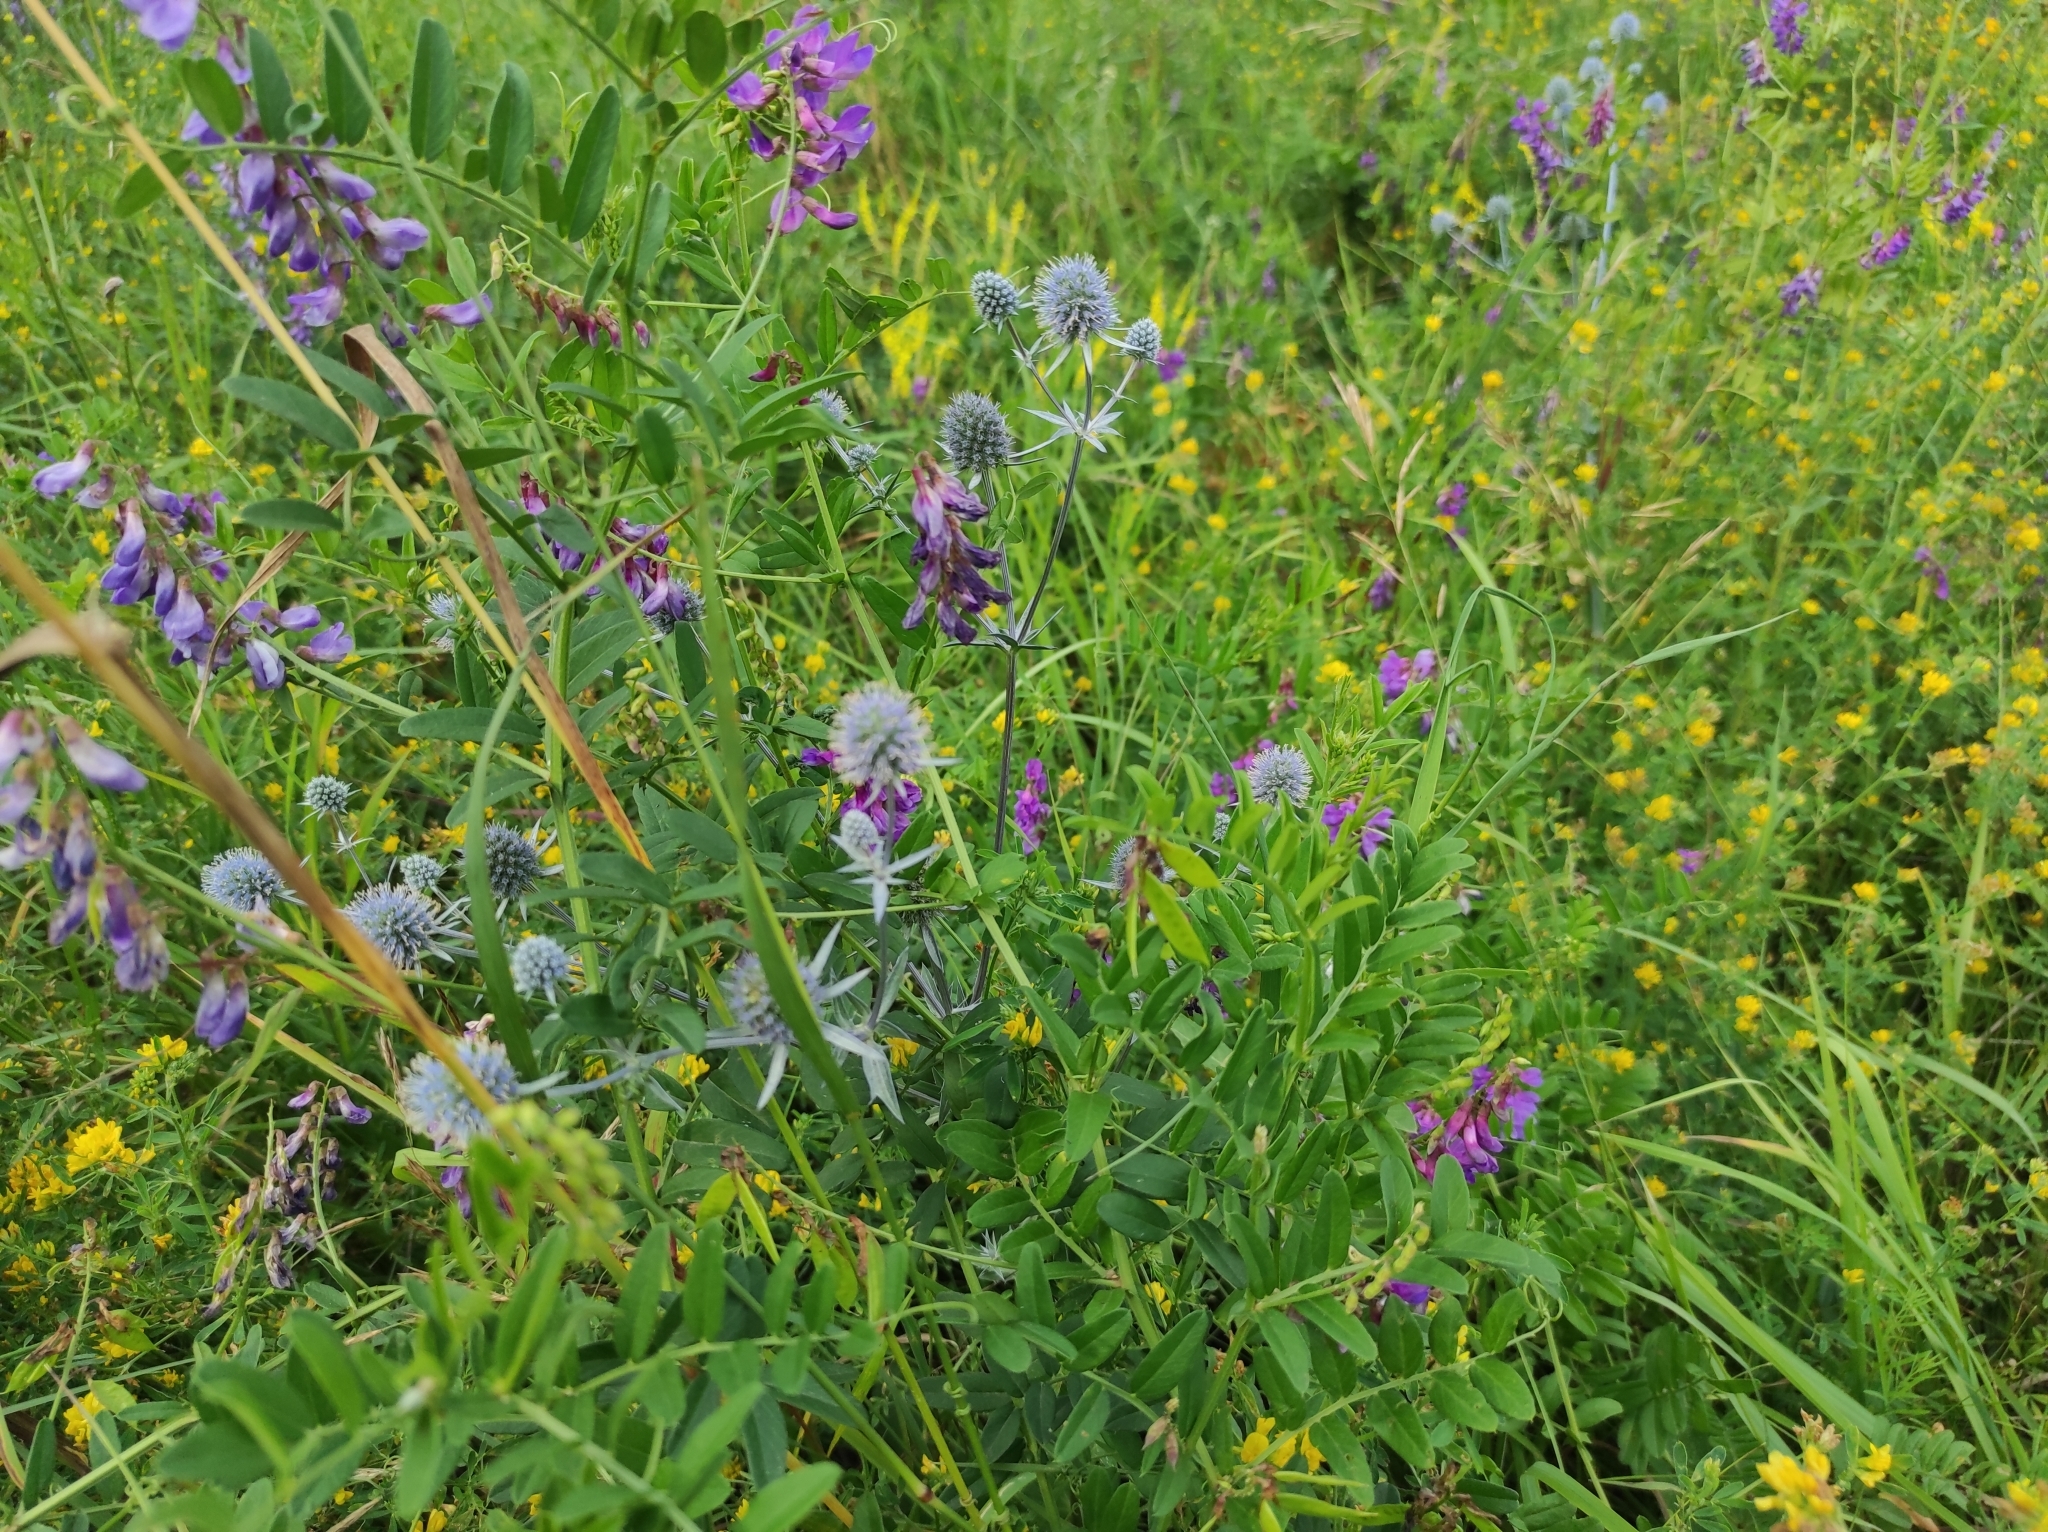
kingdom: Plantae
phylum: Tracheophyta
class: Magnoliopsida
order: Fabales
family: Fabaceae
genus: Vicia
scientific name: Vicia amoena
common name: Cheder ebs
